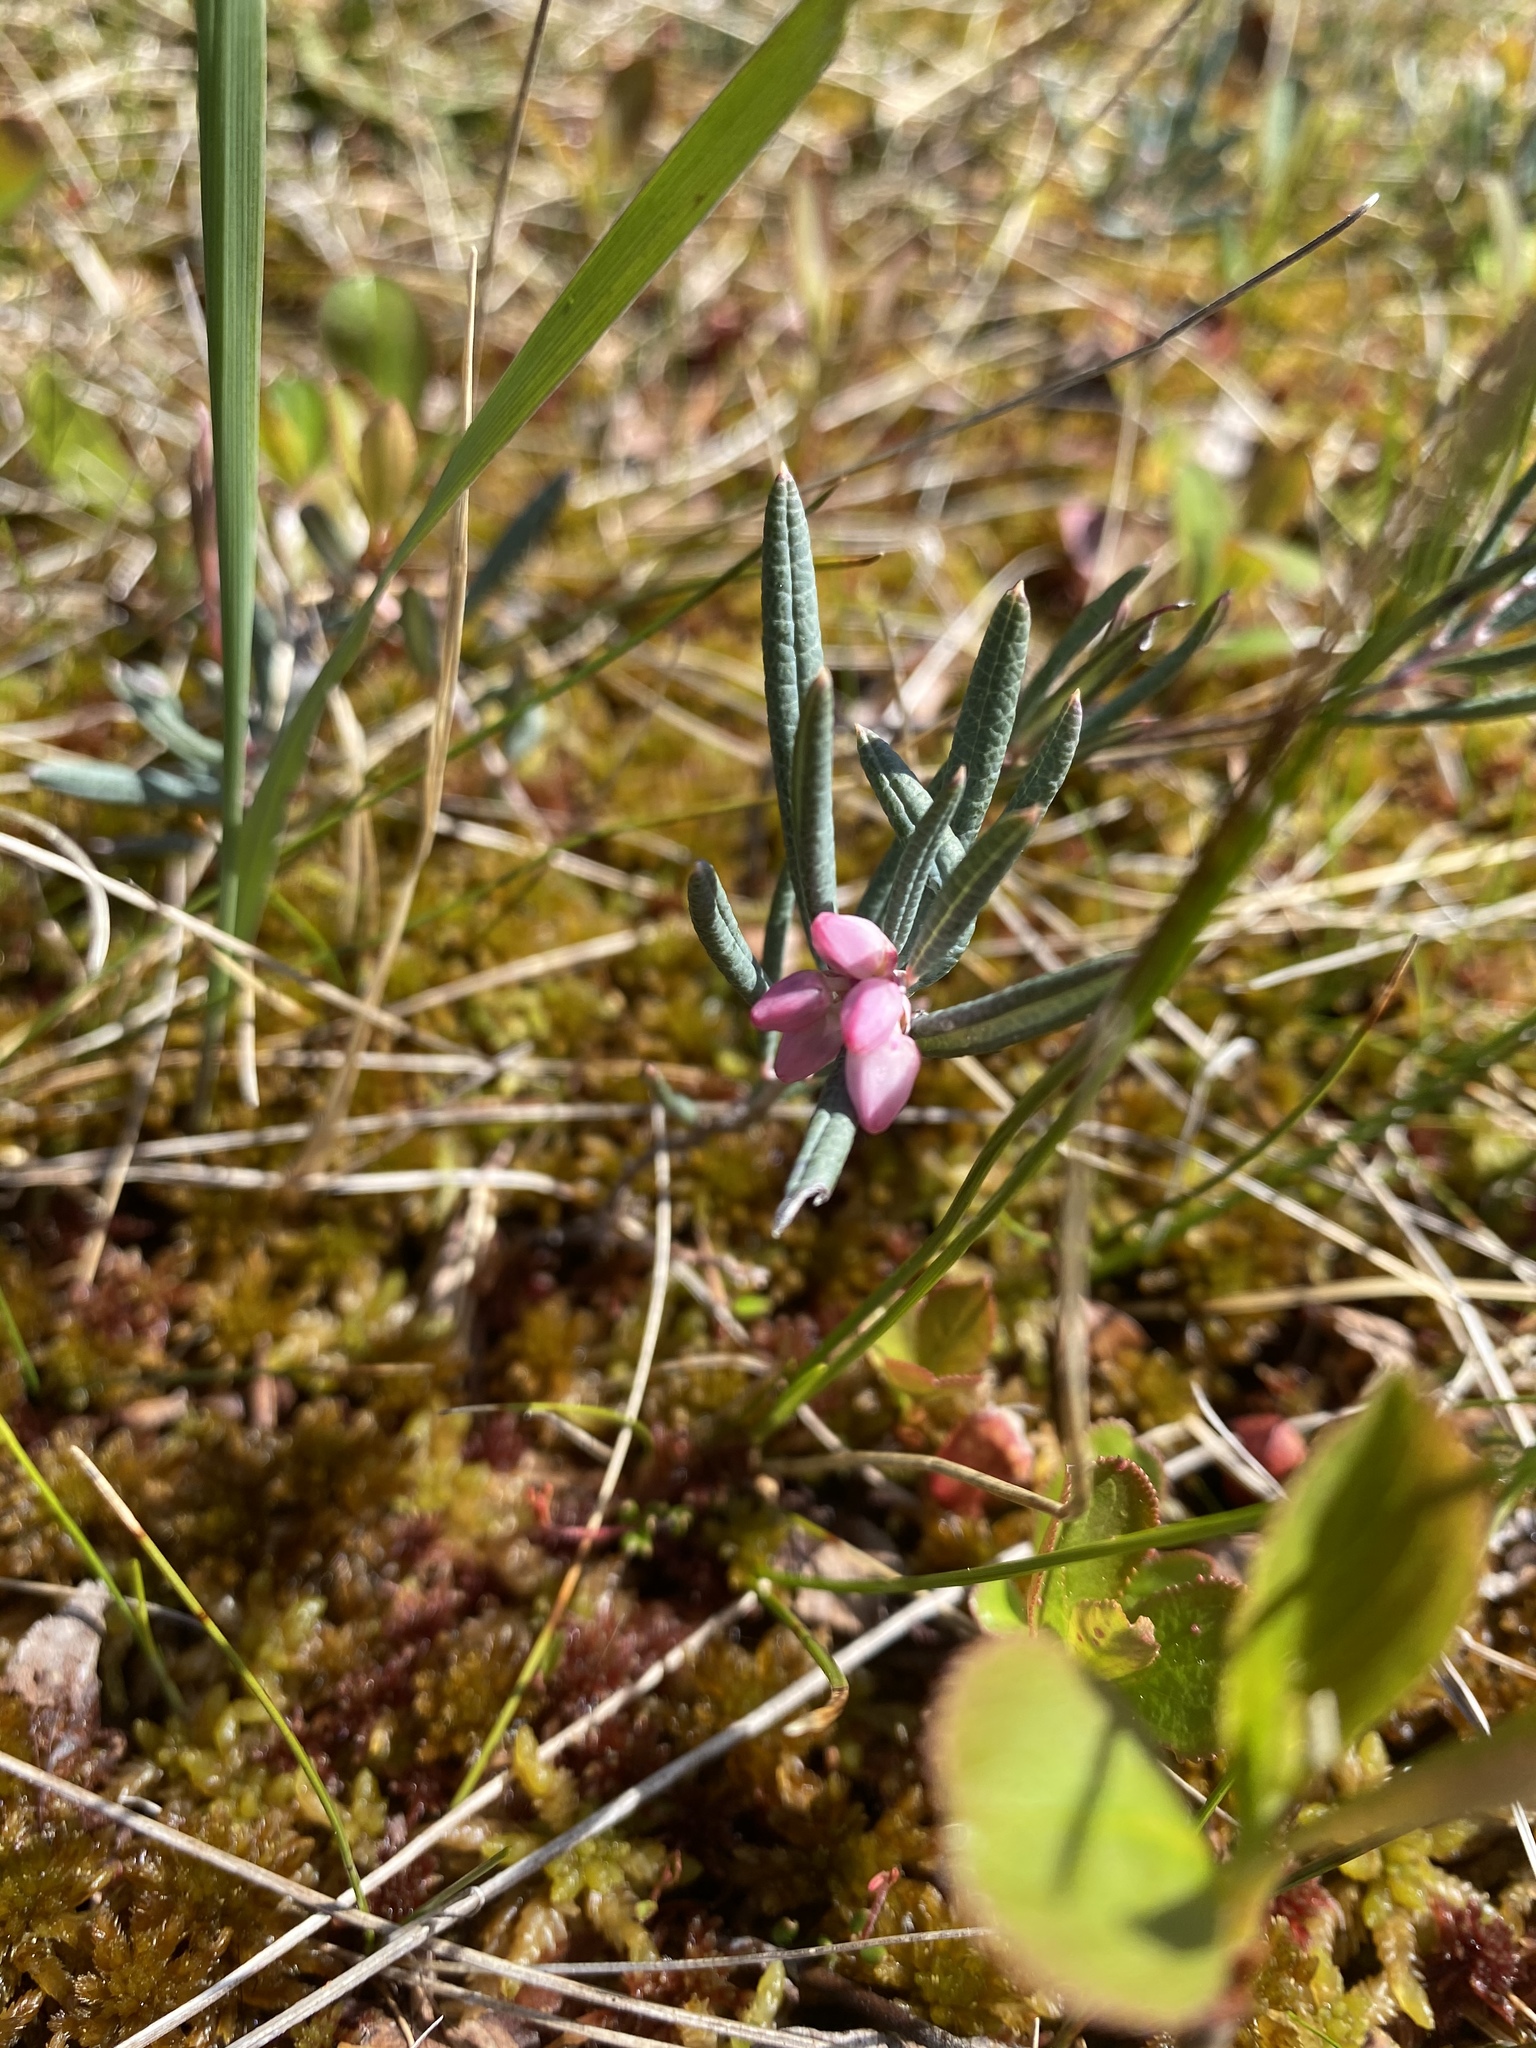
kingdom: Plantae
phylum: Tracheophyta
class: Magnoliopsida
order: Ericales
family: Ericaceae
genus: Andromeda
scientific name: Andromeda polifolia
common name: Bog-rosemary
